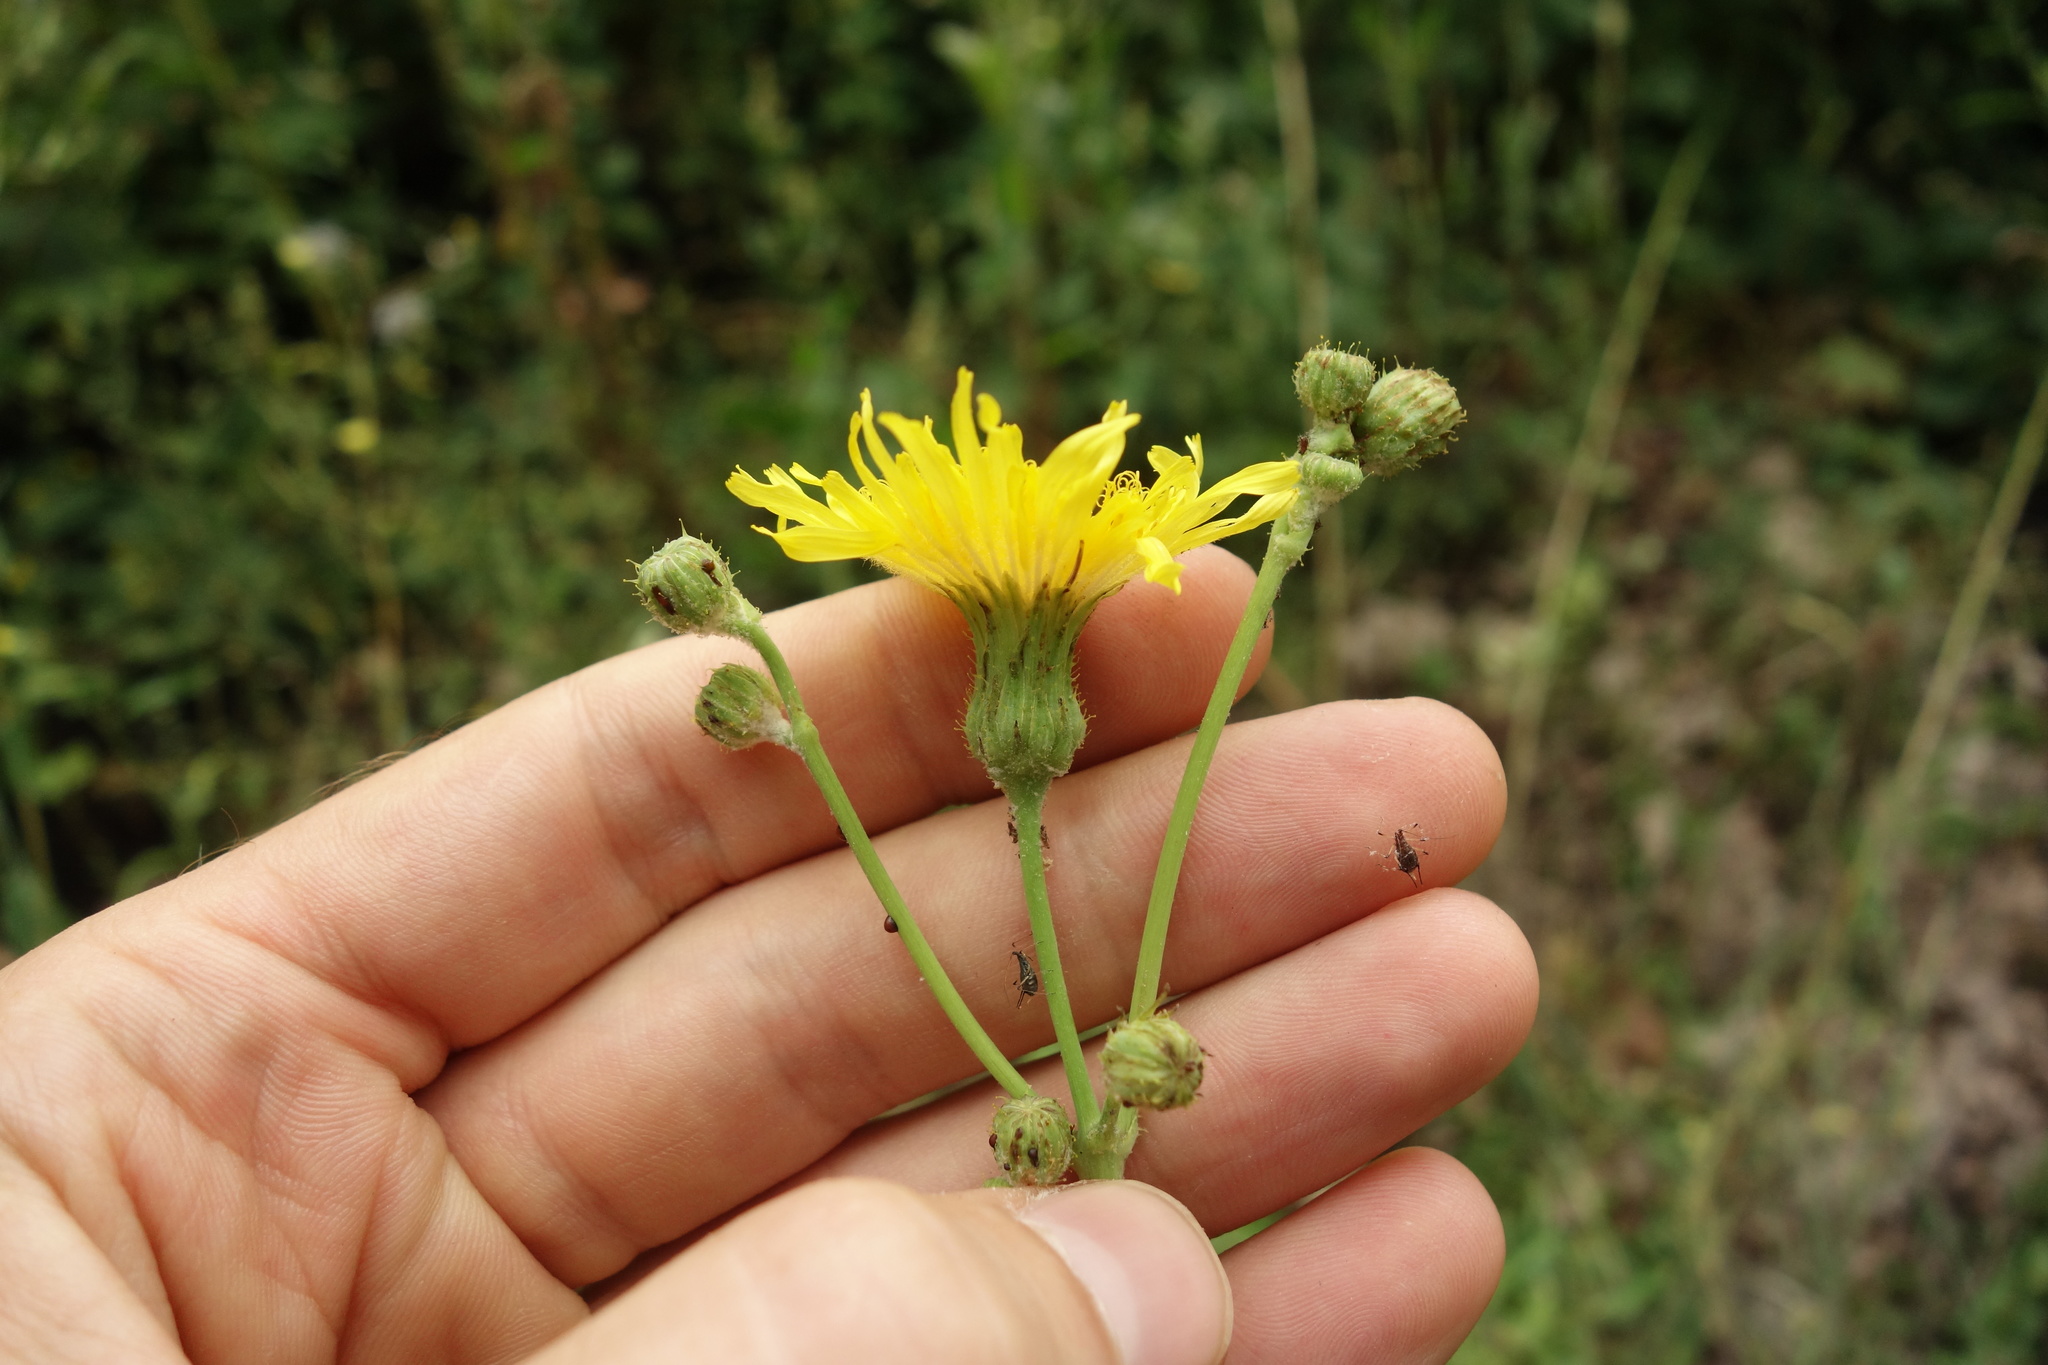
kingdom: Plantae
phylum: Tracheophyta
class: Magnoliopsida
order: Asterales
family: Asteraceae
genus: Sonchus
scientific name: Sonchus arvensis
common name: Perennial sow-thistle
